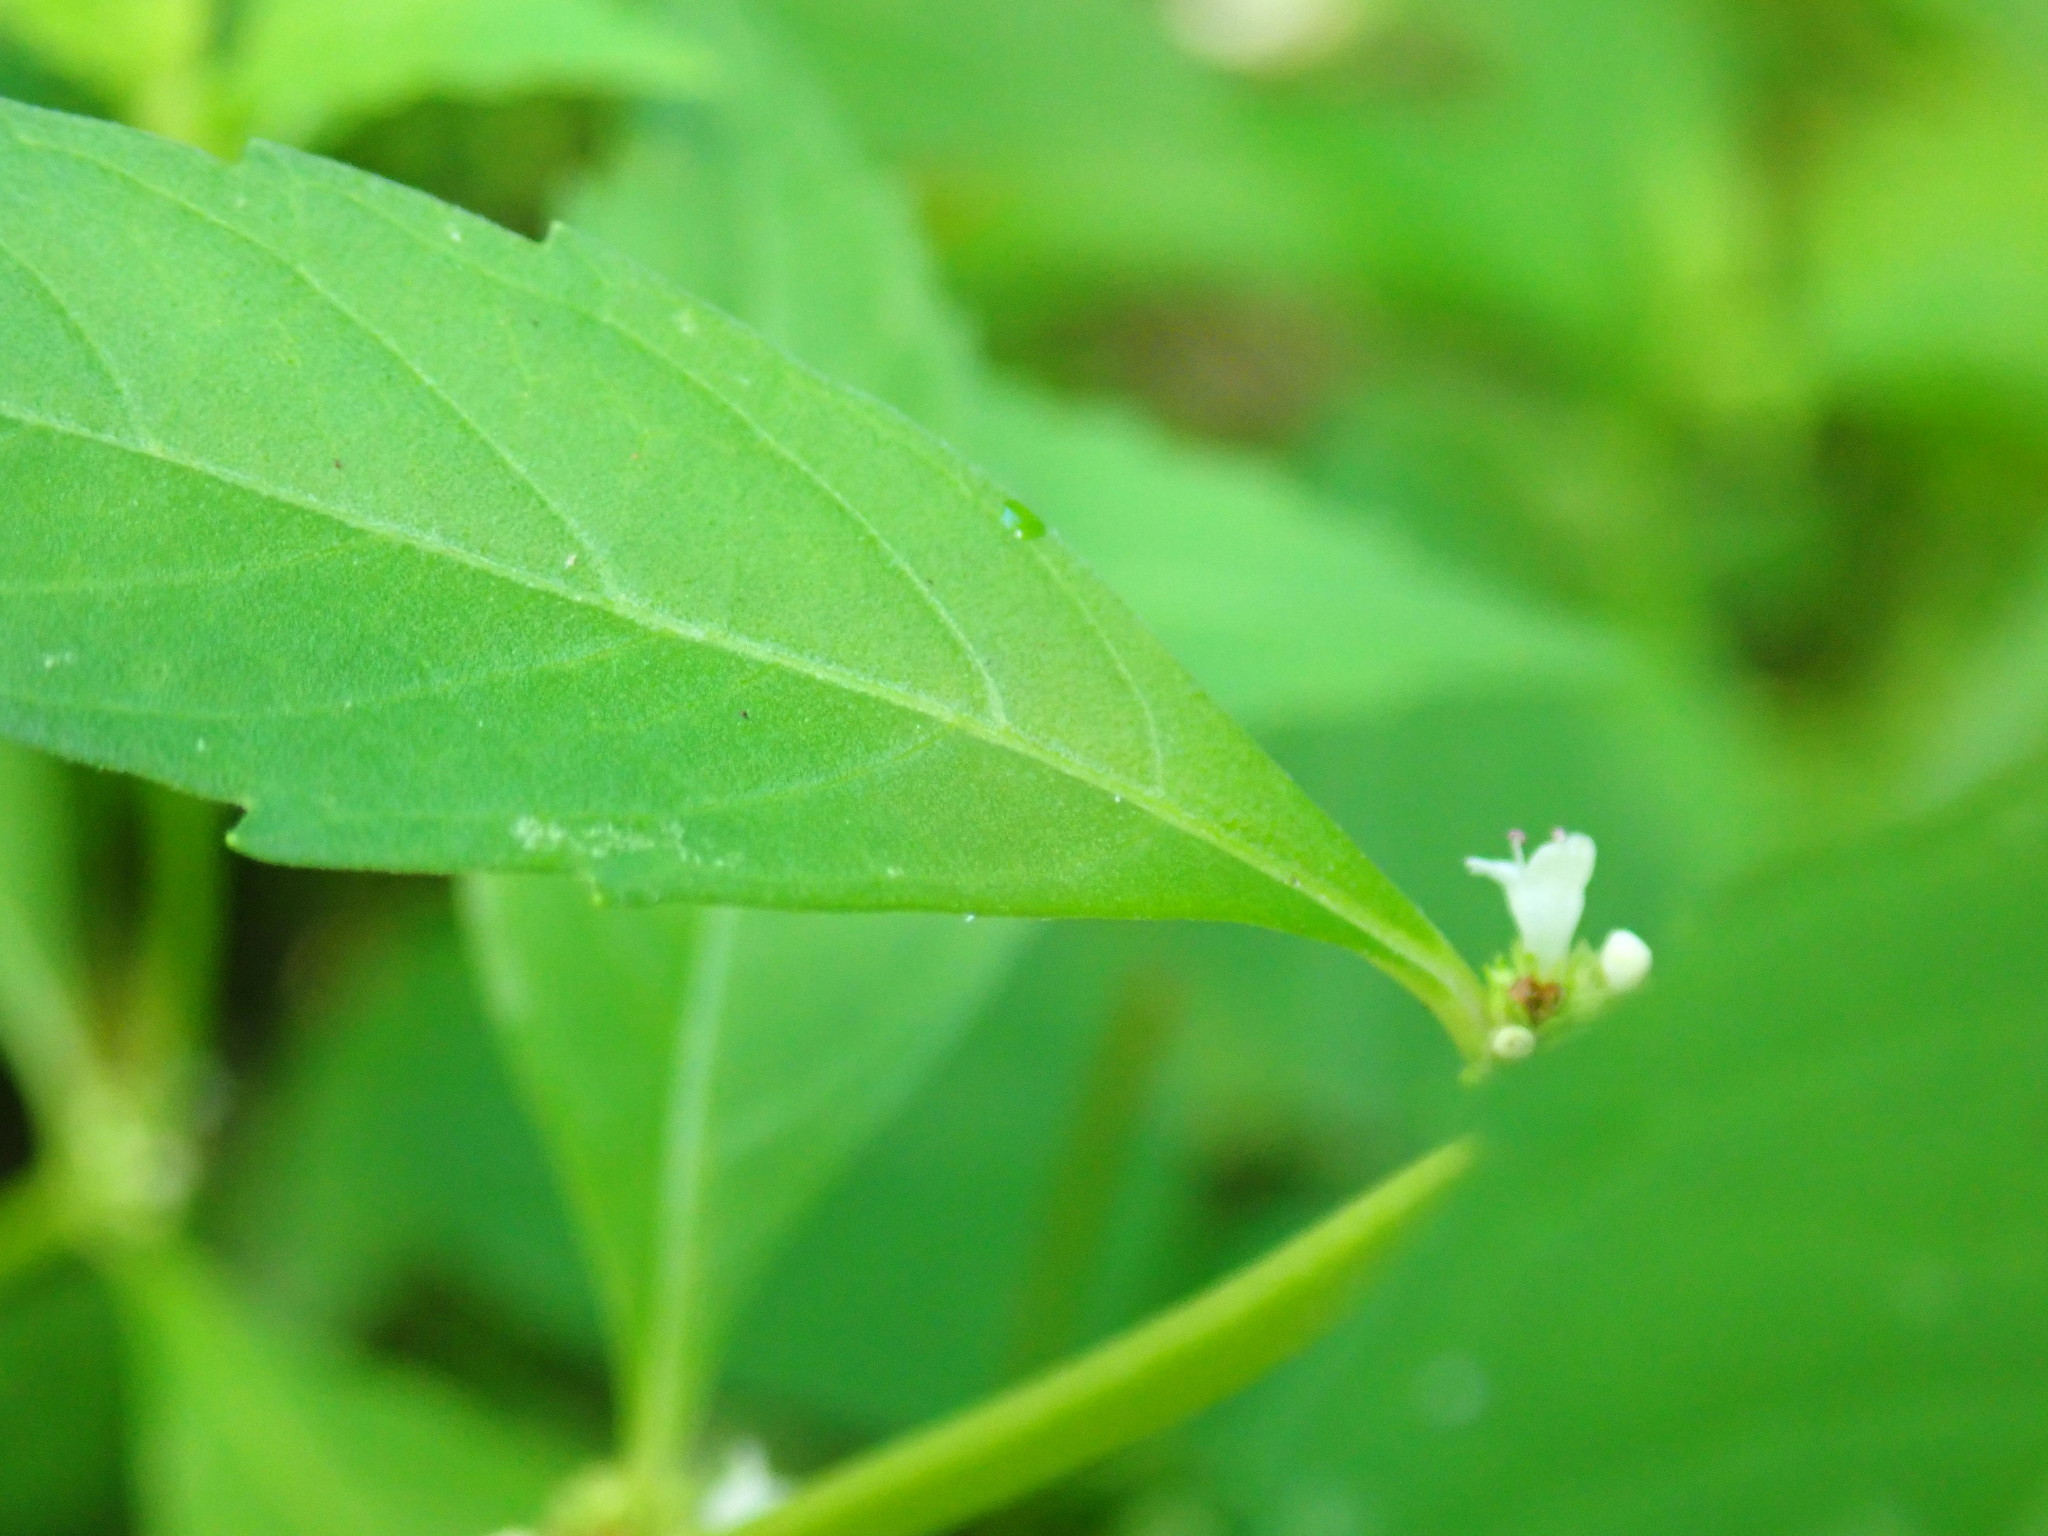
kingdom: Plantae
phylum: Tracheophyta
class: Magnoliopsida
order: Lamiales
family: Lamiaceae
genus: Lycopus
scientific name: Lycopus uniflorus
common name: Northern bugleweed
